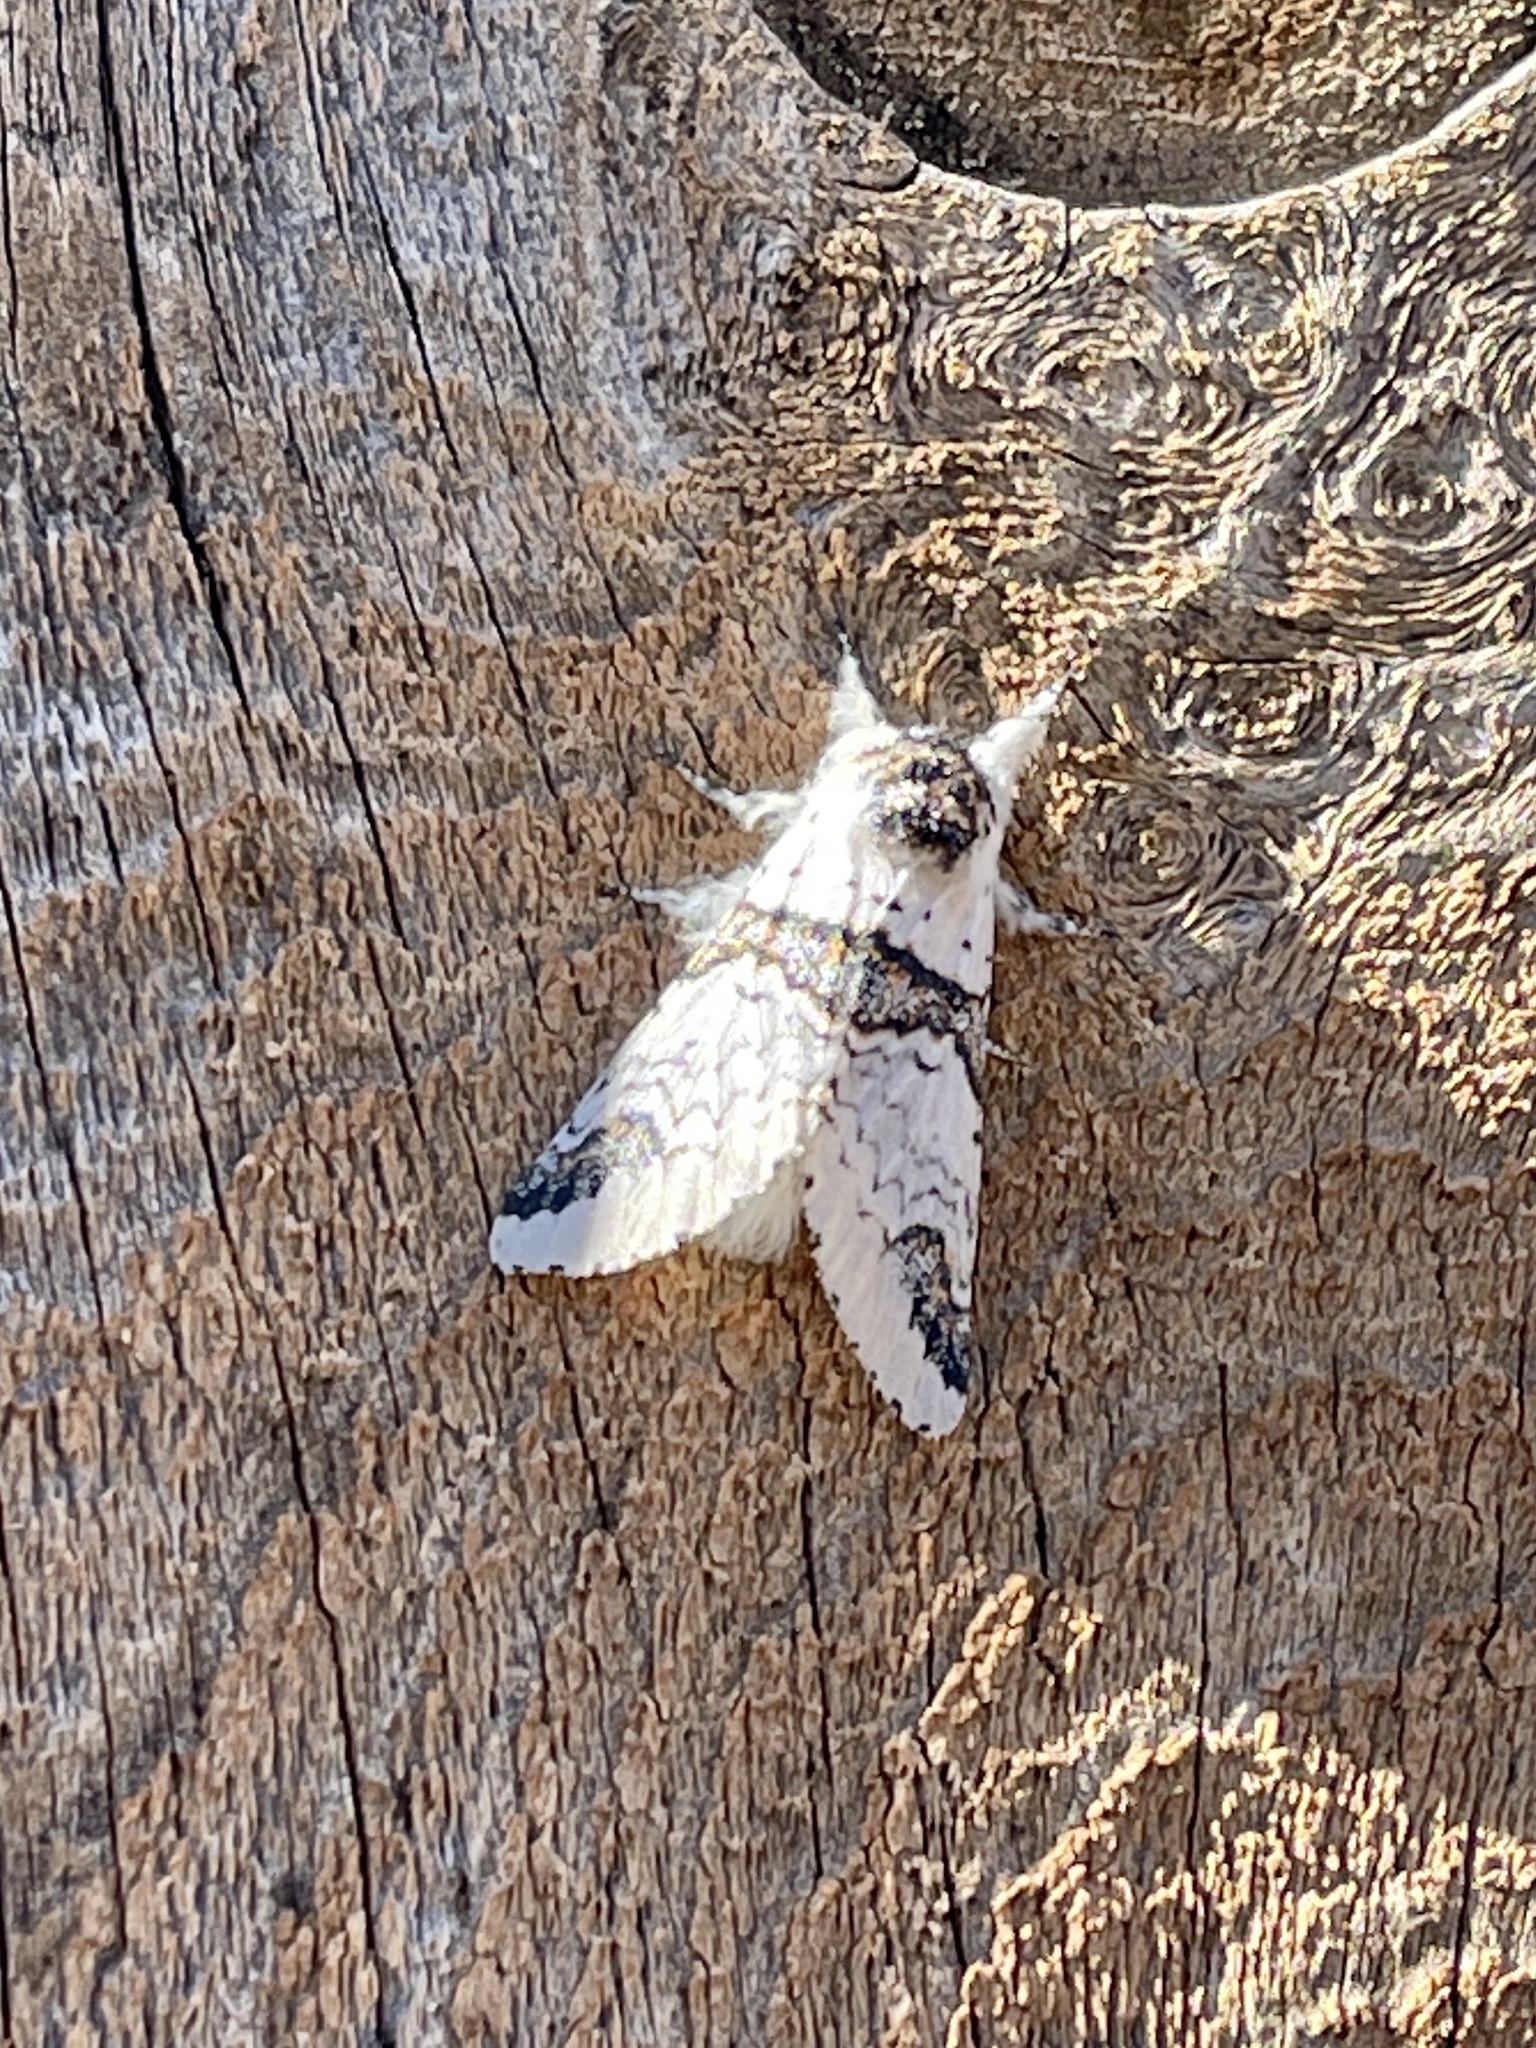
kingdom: Animalia
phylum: Arthropoda
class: Insecta
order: Lepidoptera
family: Notodontidae
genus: Furcula
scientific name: Furcula scolopendrina
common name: Zigzag furcula moth
